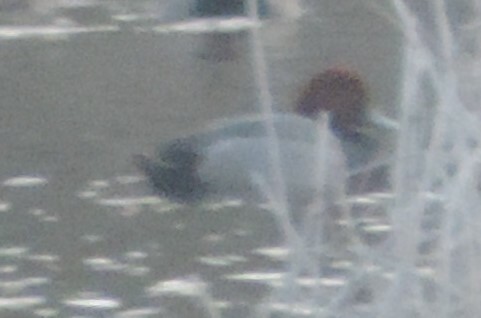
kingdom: Animalia
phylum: Chordata
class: Aves
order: Anseriformes
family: Anatidae
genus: Aythya
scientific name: Aythya americana
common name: Redhead
